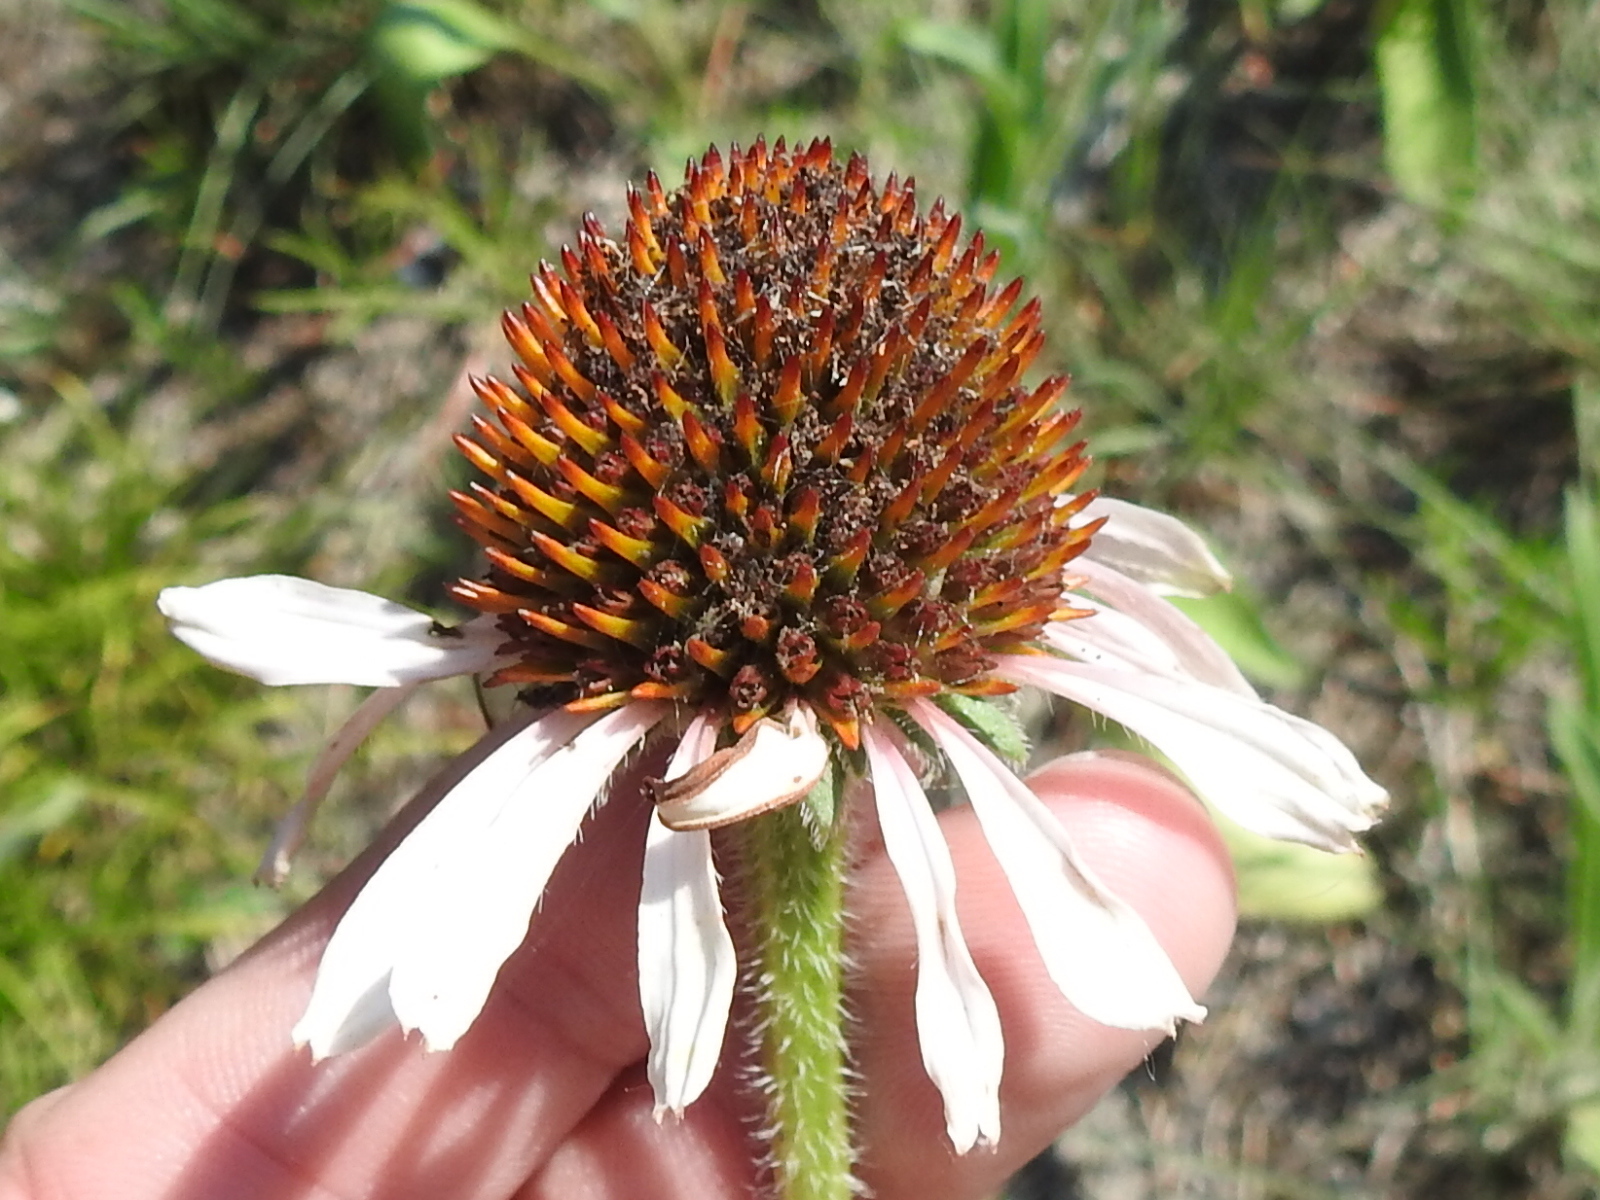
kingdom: Plantae
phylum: Tracheophyta
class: Magnoliopsida
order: Asterales
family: Asteraceae
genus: Echinacea
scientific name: Echinacea angustifolia
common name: Black-sampson echinacea
